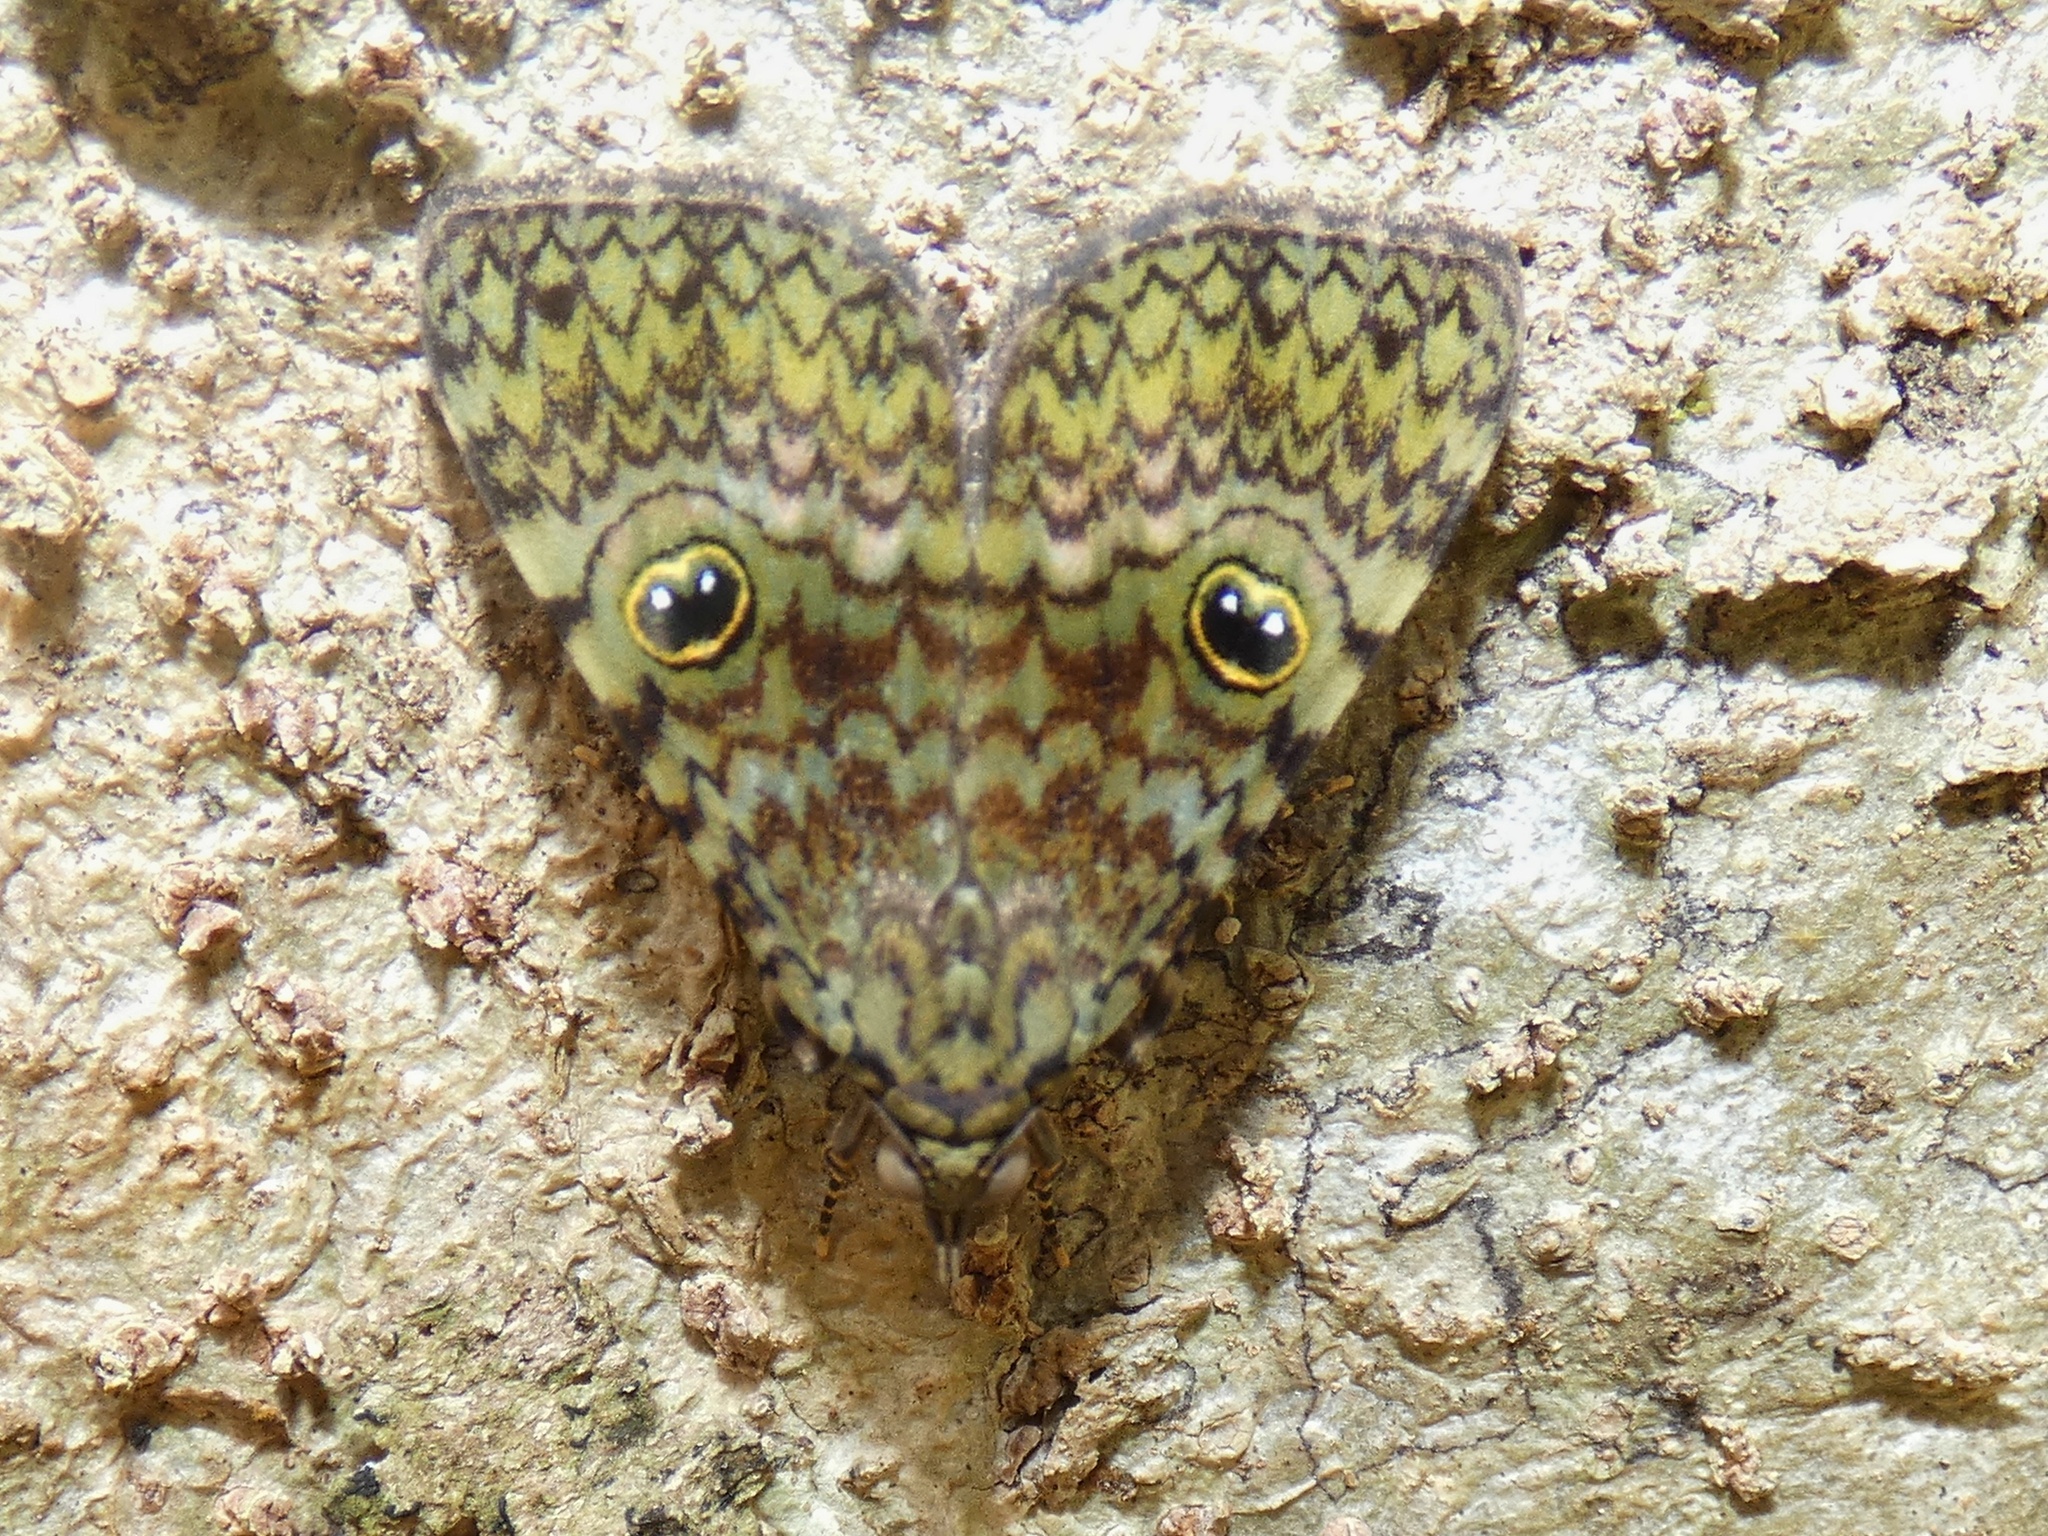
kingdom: Animalia
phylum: Arthropoda
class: Insecta
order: Lepidoptera
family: Erebidae
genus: Glenopteris
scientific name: Glenopteris oculifera
